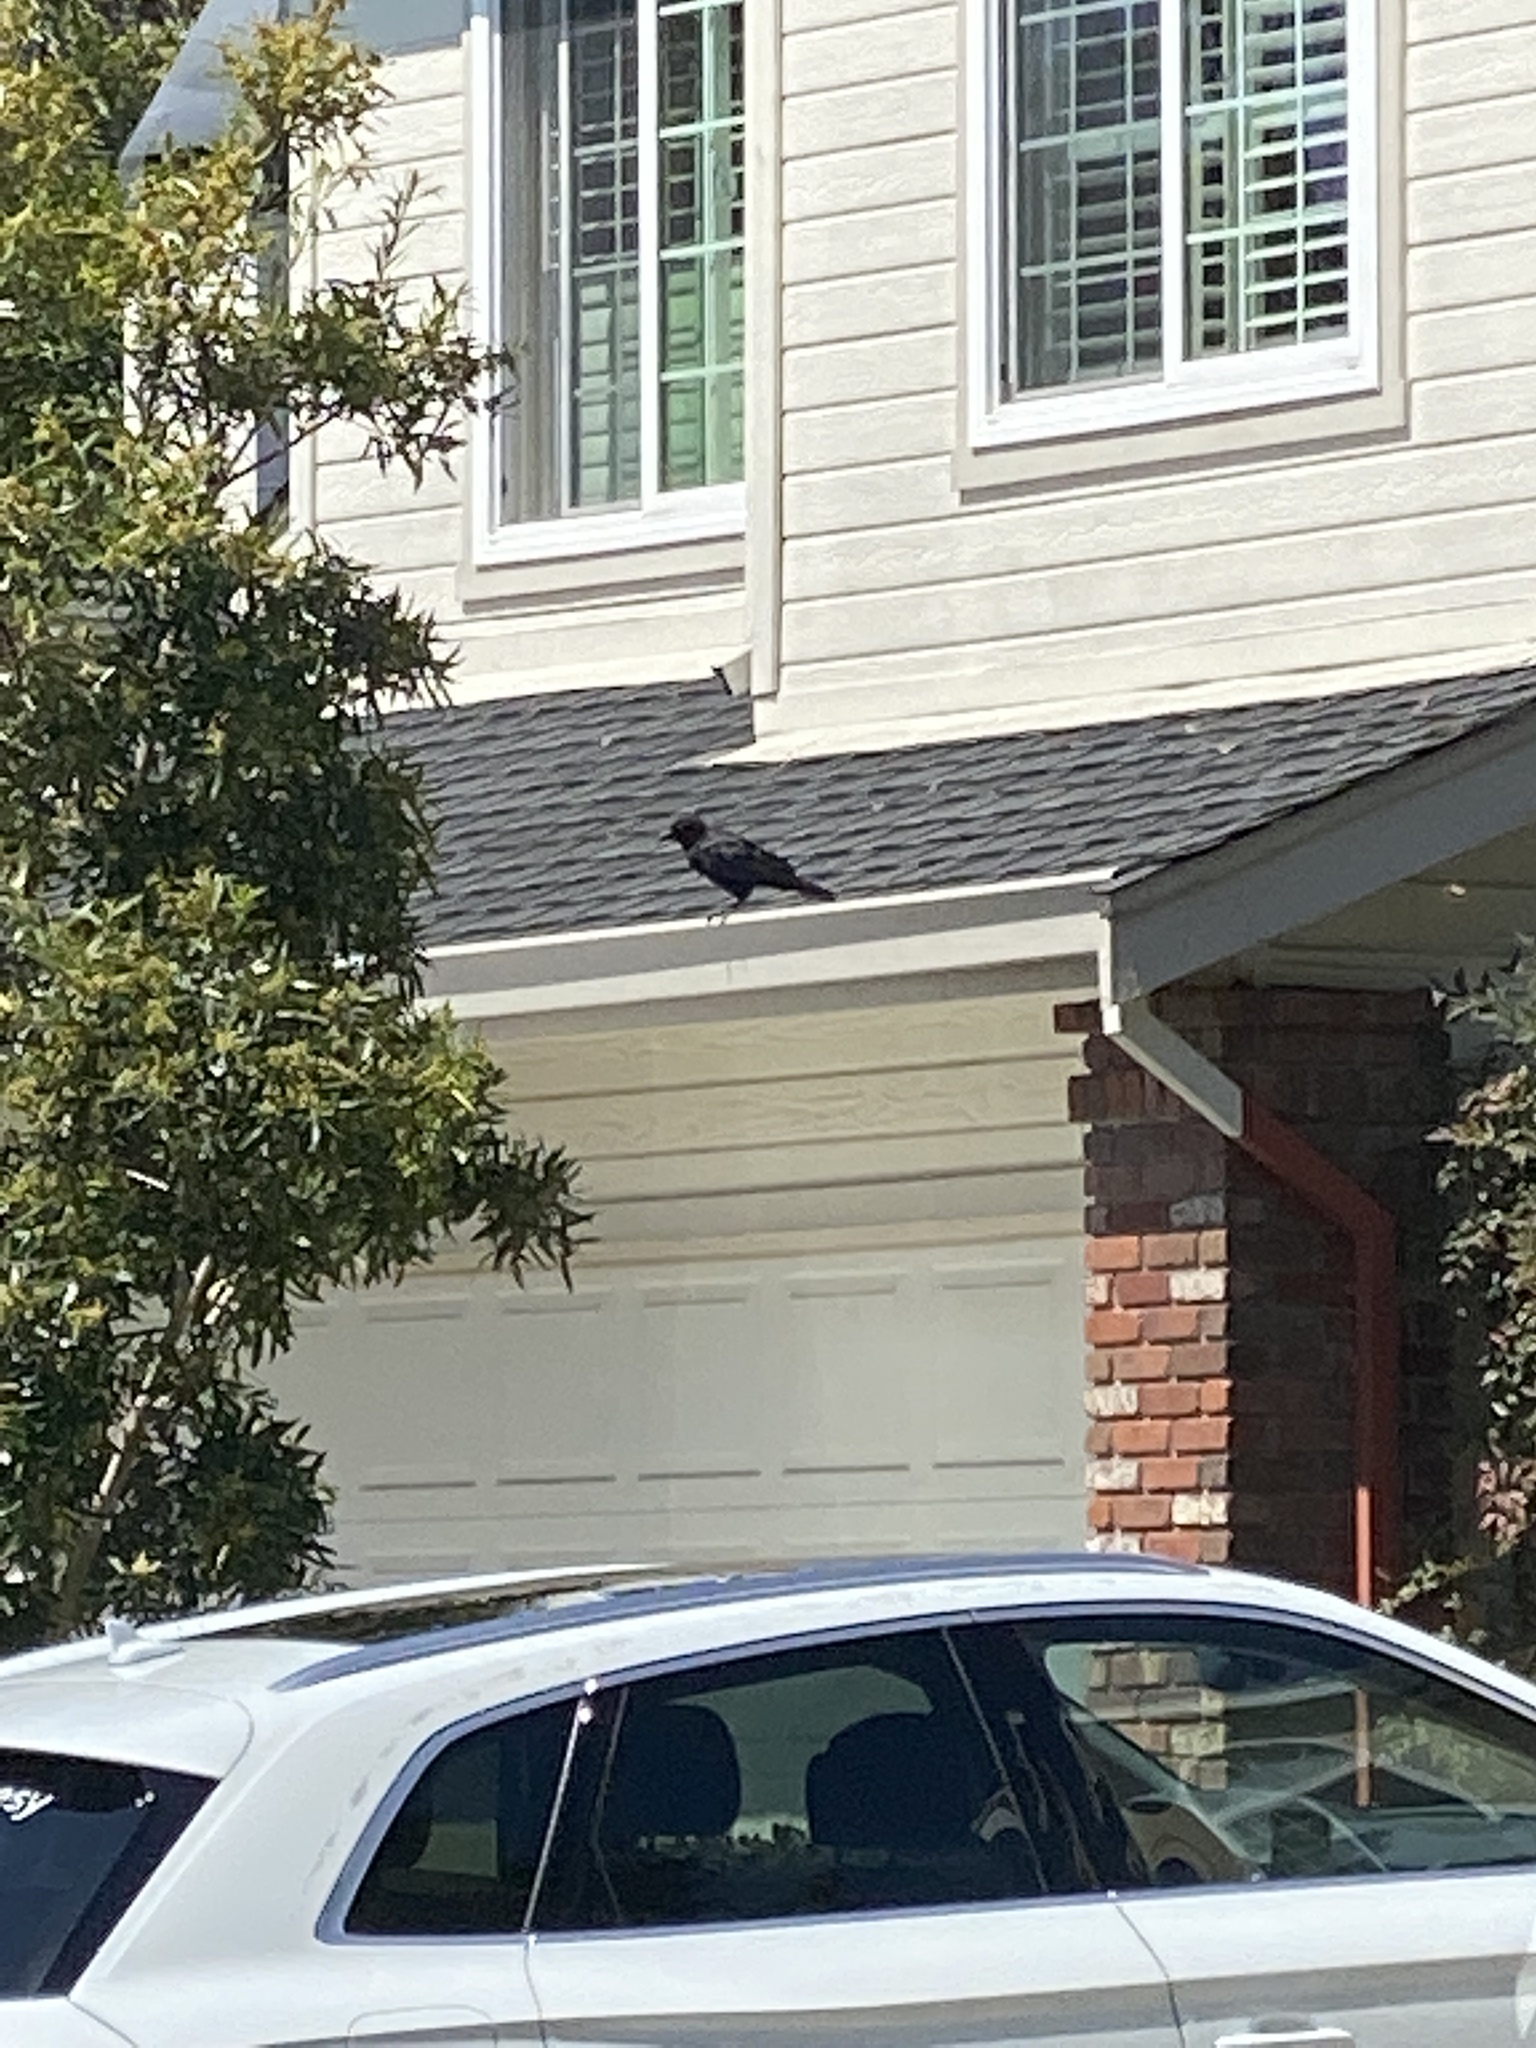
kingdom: Animalia
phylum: Chordata
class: Aves
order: Passeriformes
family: Corvidae
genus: Corvus
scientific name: Corvus brachyrhynchos
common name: American crow
